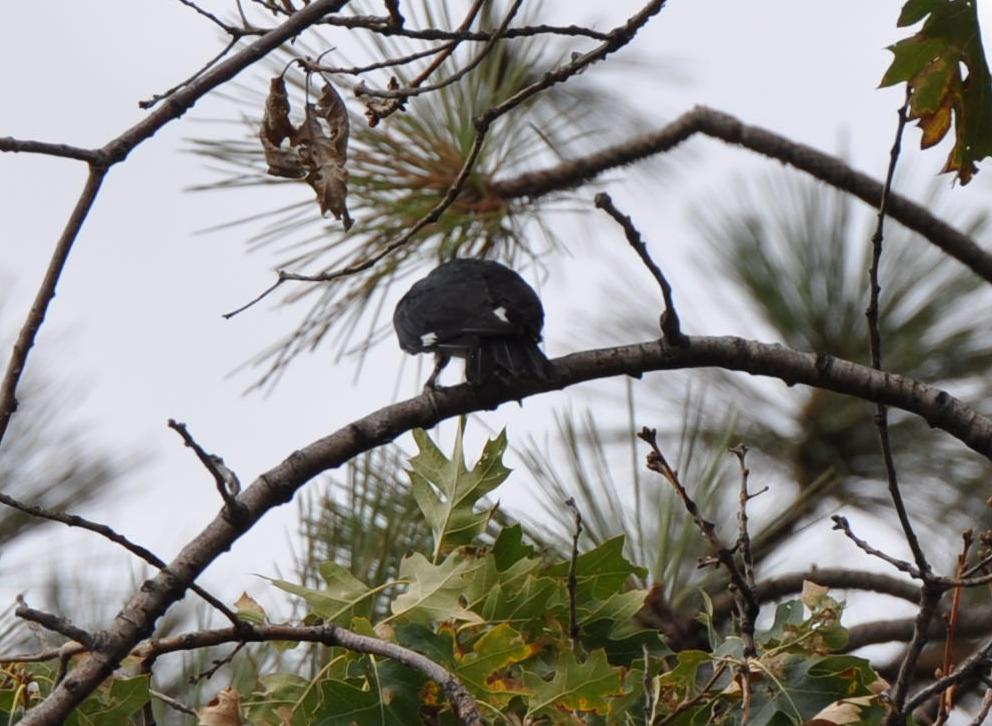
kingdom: Animalia
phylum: Chordata
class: Aves
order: Piciformes
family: Picidae
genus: Melanerpes
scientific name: Melanerpes formicivorus
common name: Acorn woodpecker
